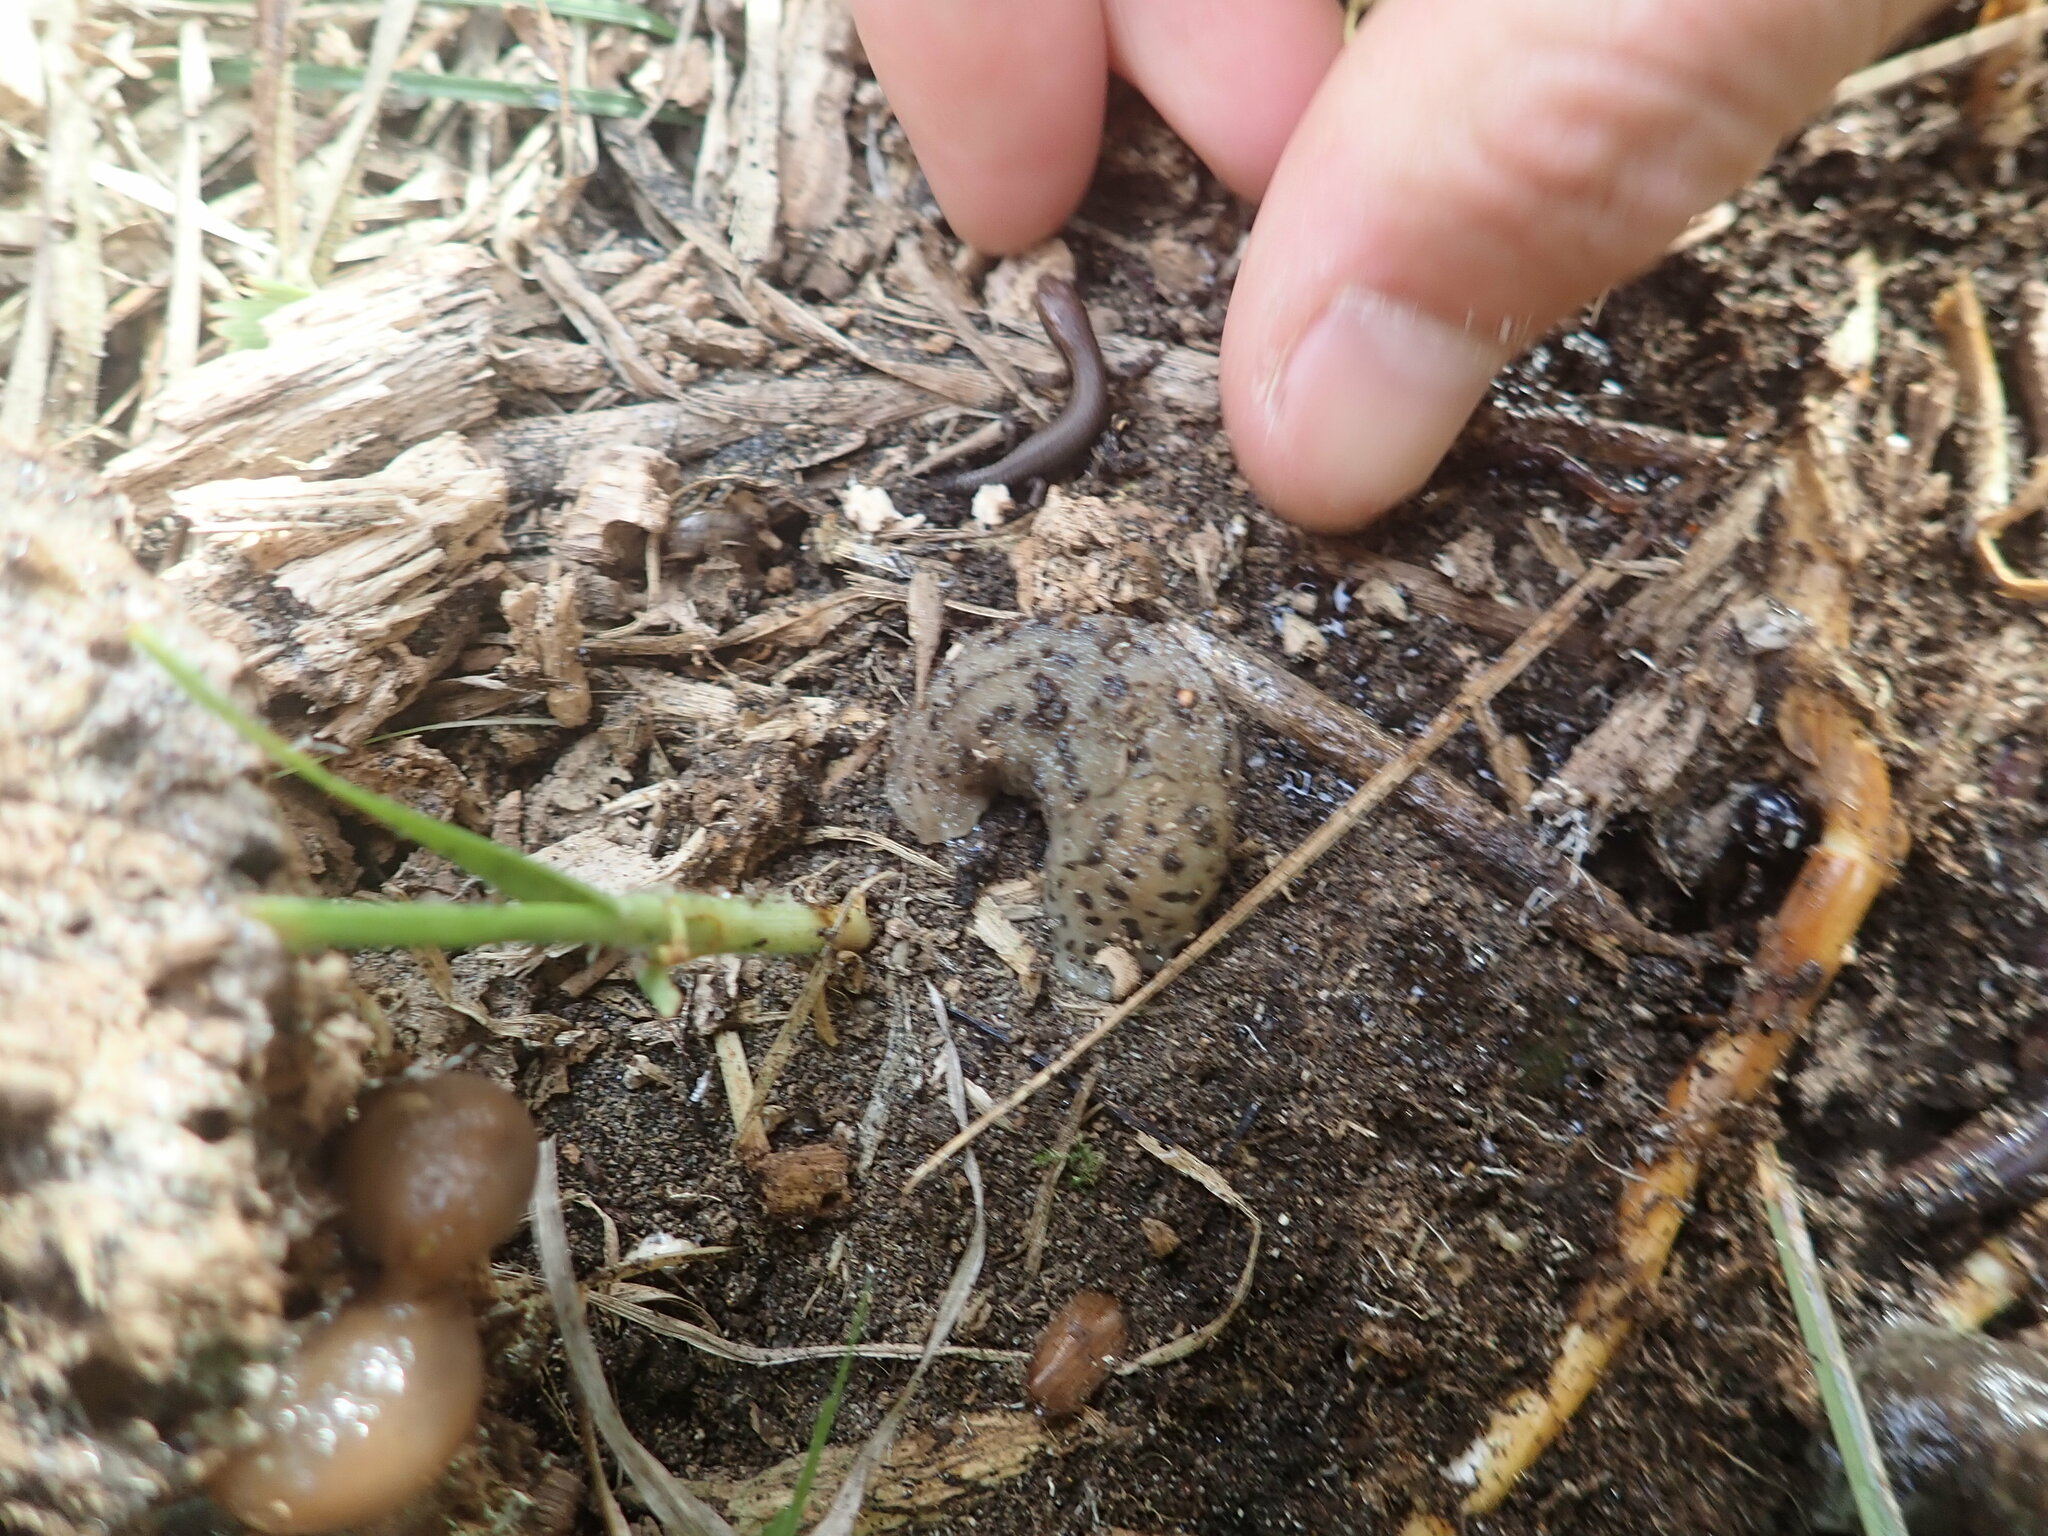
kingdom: Animalia
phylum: Mollusca
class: Gastropoda
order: Stylommatophora
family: Limacidae
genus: Limax
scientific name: Limax maximus
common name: Great grey slug
